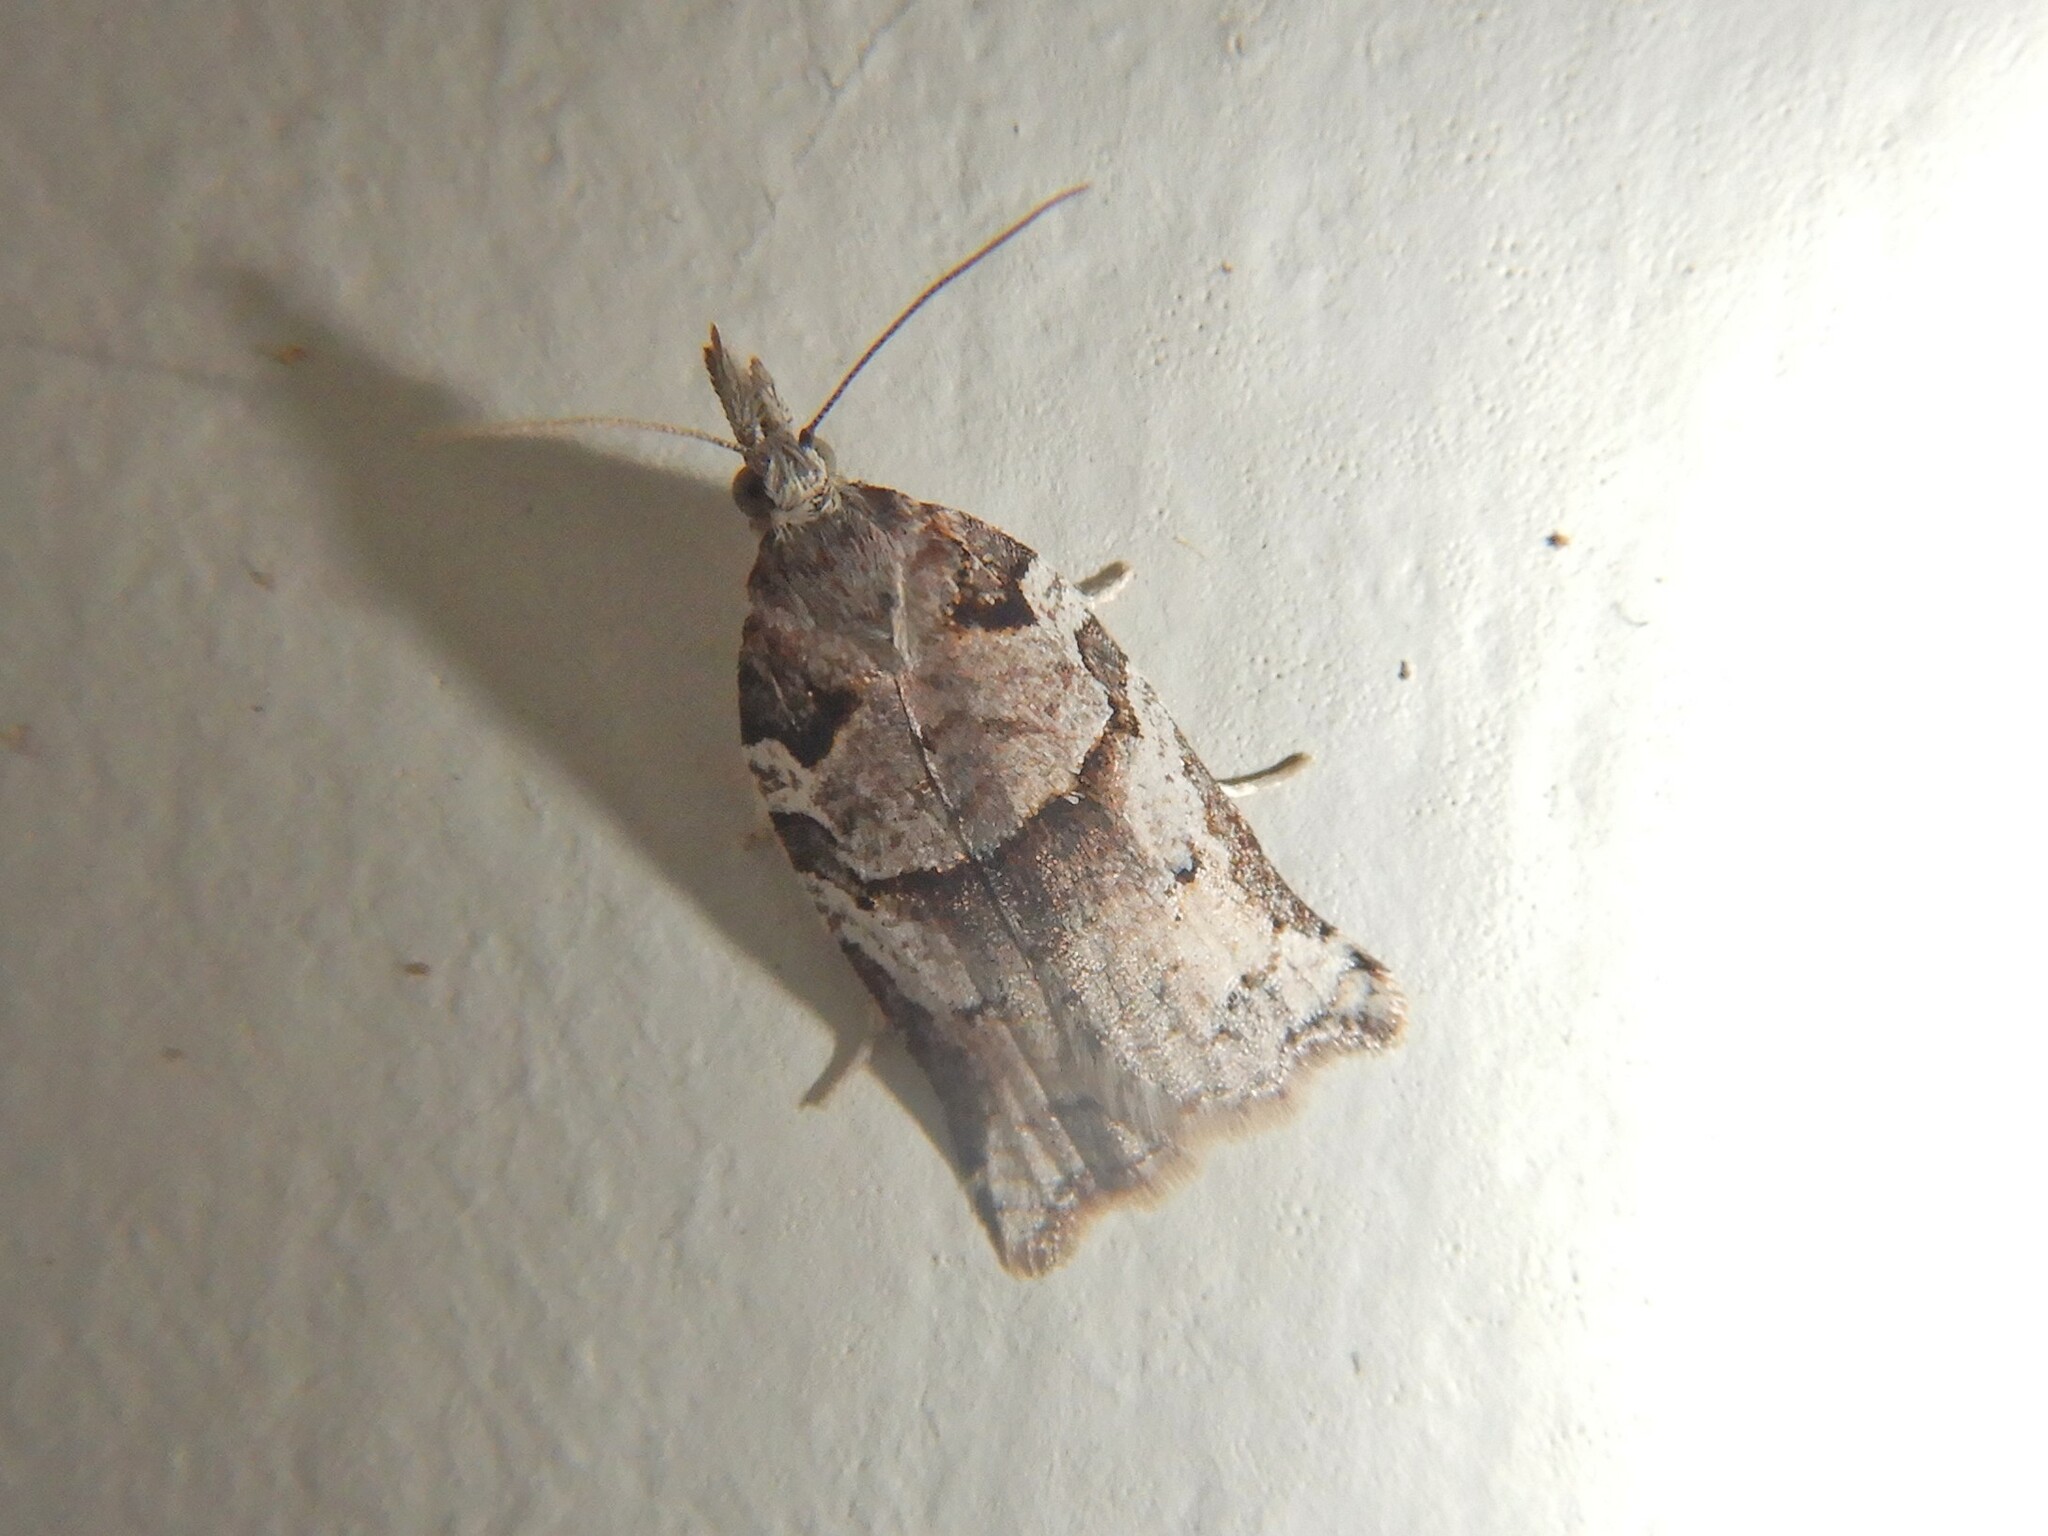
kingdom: Animalia
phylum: Arthropoda
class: Insecta
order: Lepidoptera
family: Tortricidae
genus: Harmologa
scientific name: Harmologa amplexana
